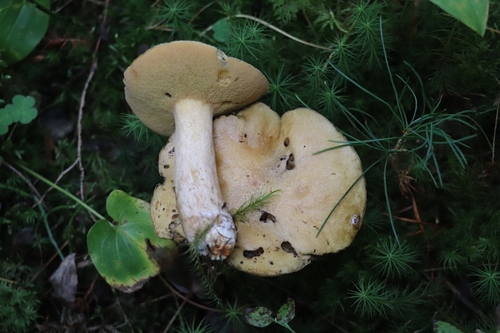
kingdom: Fungi
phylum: Basidiomycota
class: Agaricomycetes
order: Boletales
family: Suillaceae
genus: Suillus
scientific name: Suillus punctipes
